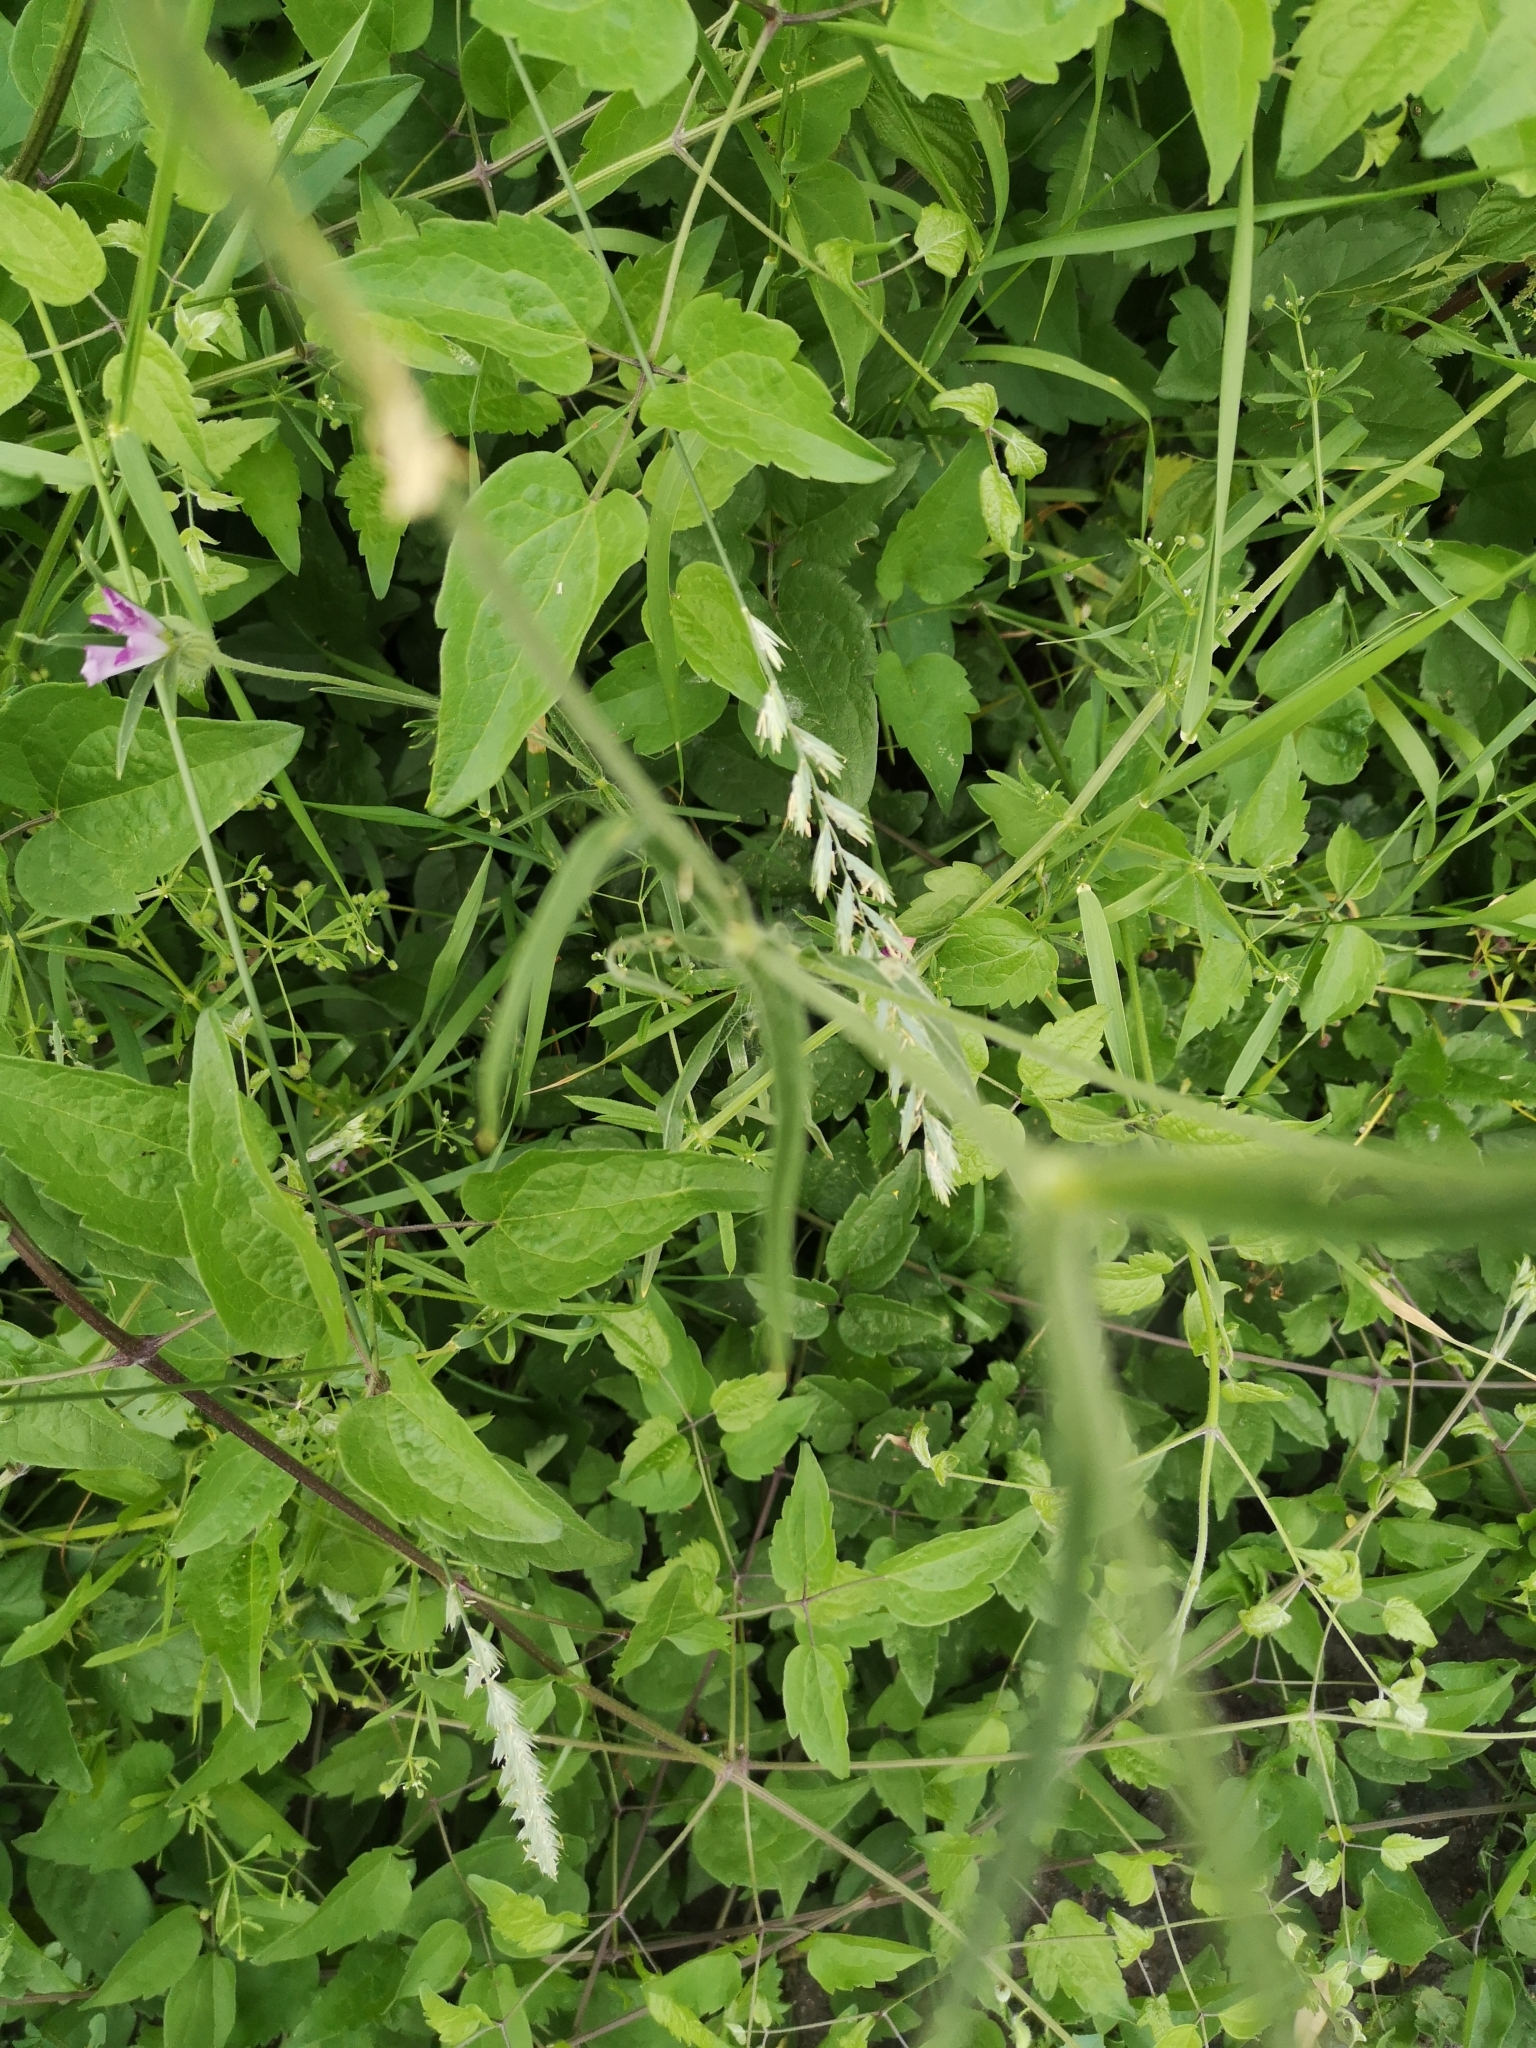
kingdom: Plantae
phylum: Tracheophyta
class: Magnoliopsida
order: Caryophyllales
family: Caryophyllaceae
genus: Agrostemma
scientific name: Agrostemma githago
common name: Common corncockle
